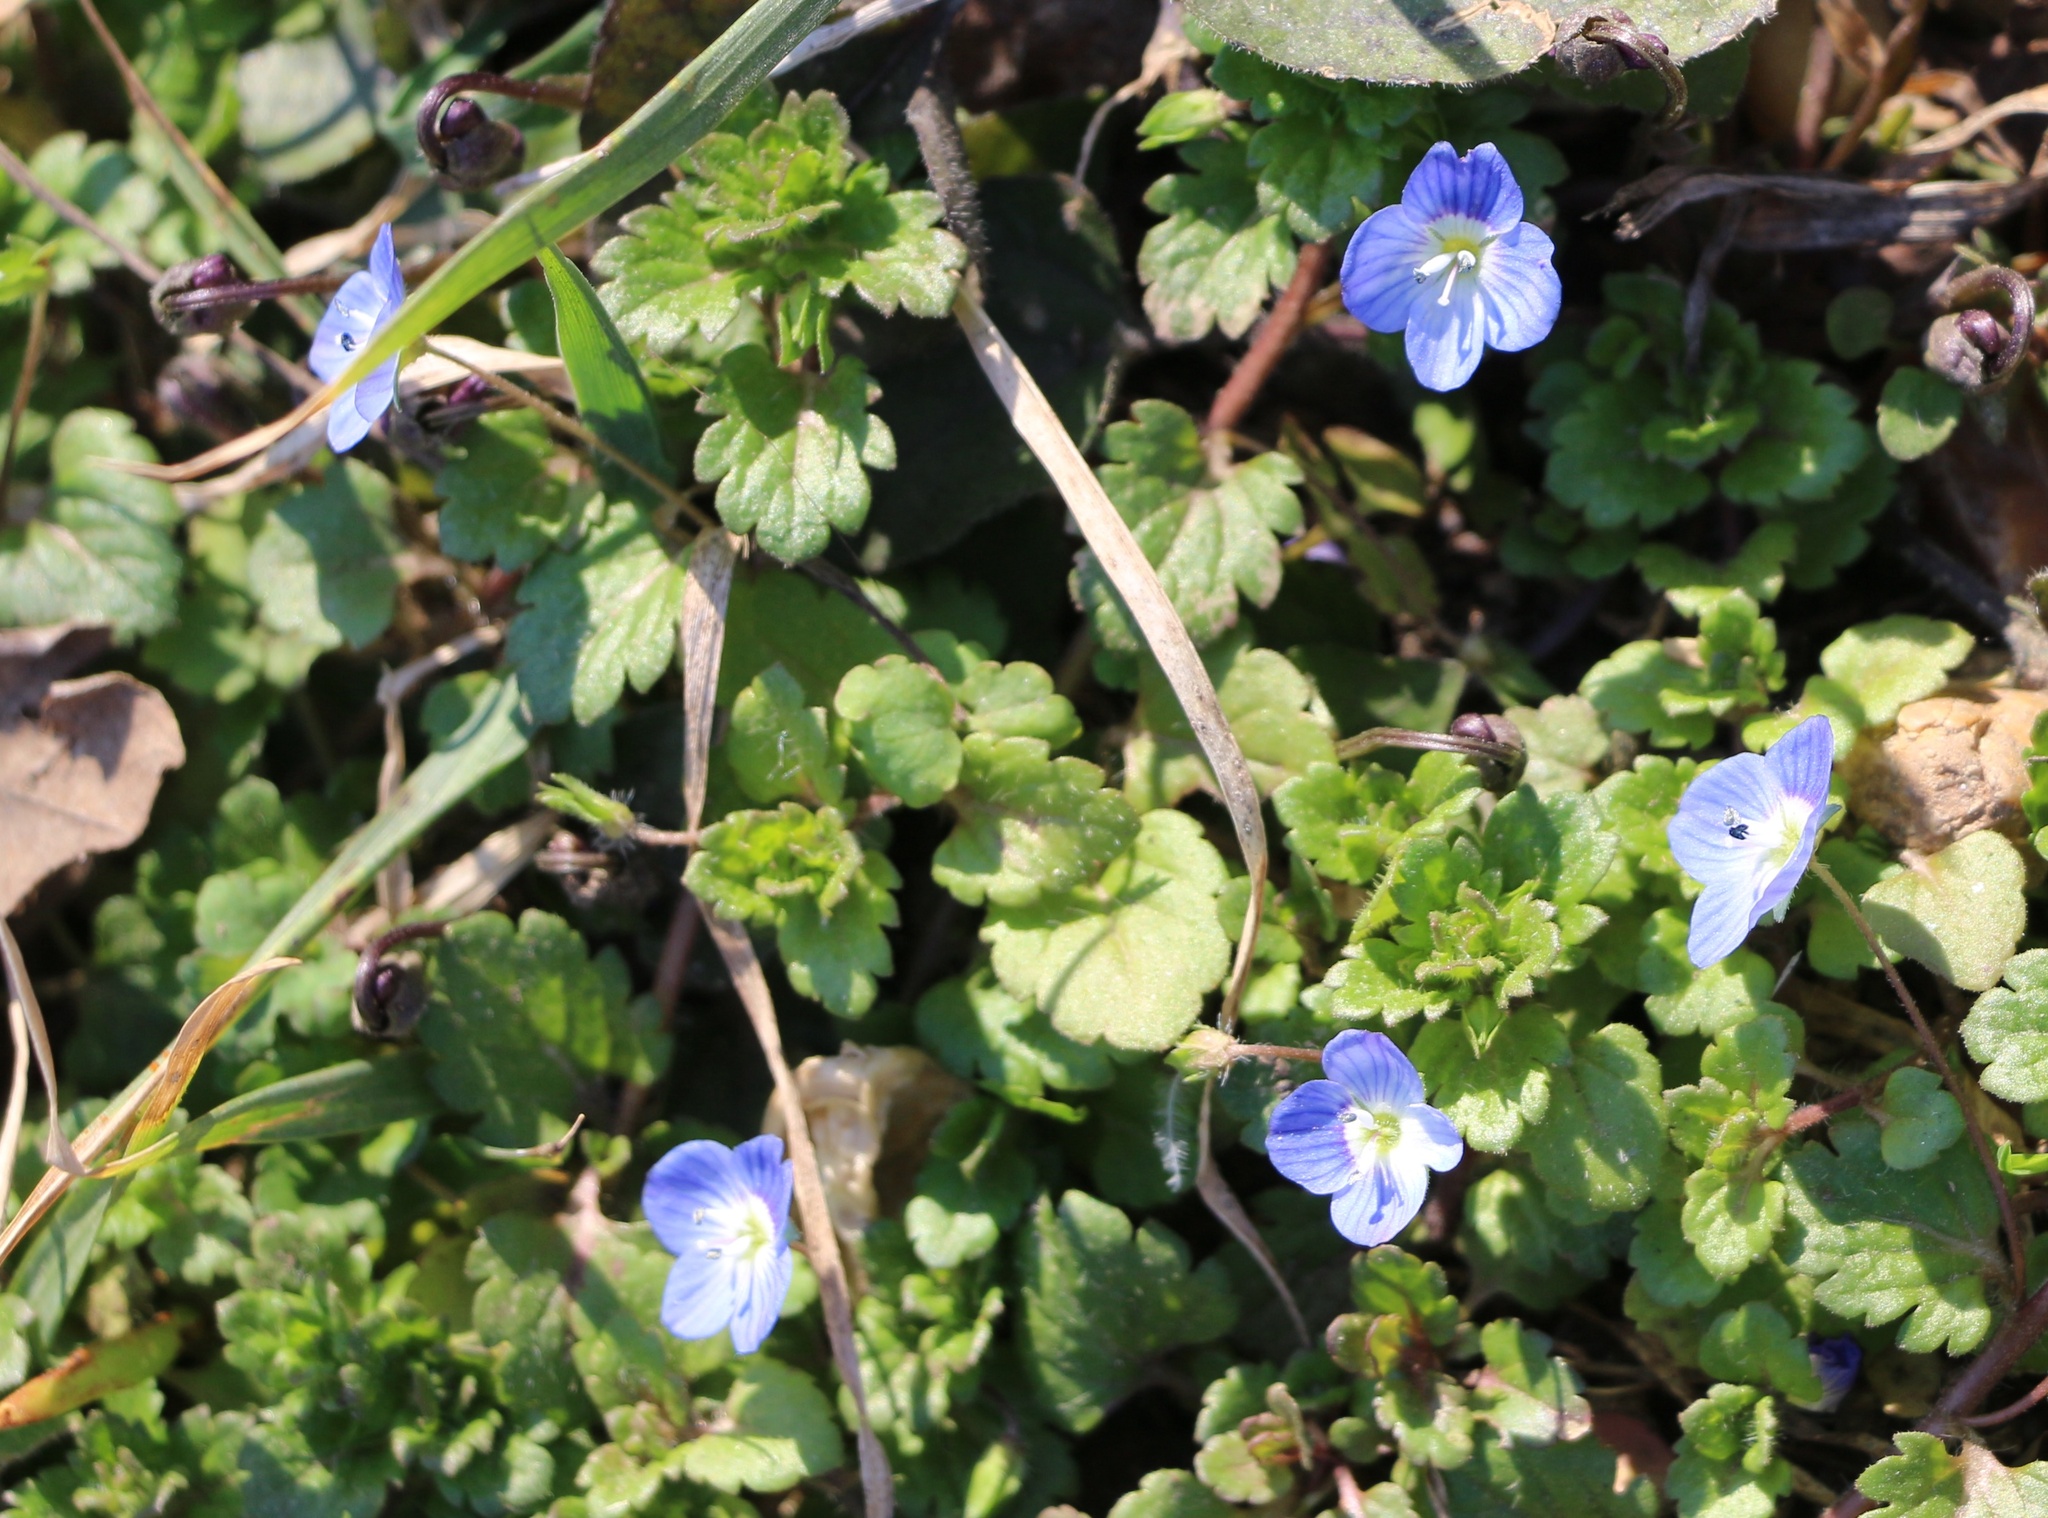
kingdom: Plantae
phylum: Tracheophyta
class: Magnoliopsida
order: Lamiales
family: Plantaginaceae
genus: Veronica
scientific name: Veronica persica
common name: Common field-speedwell
